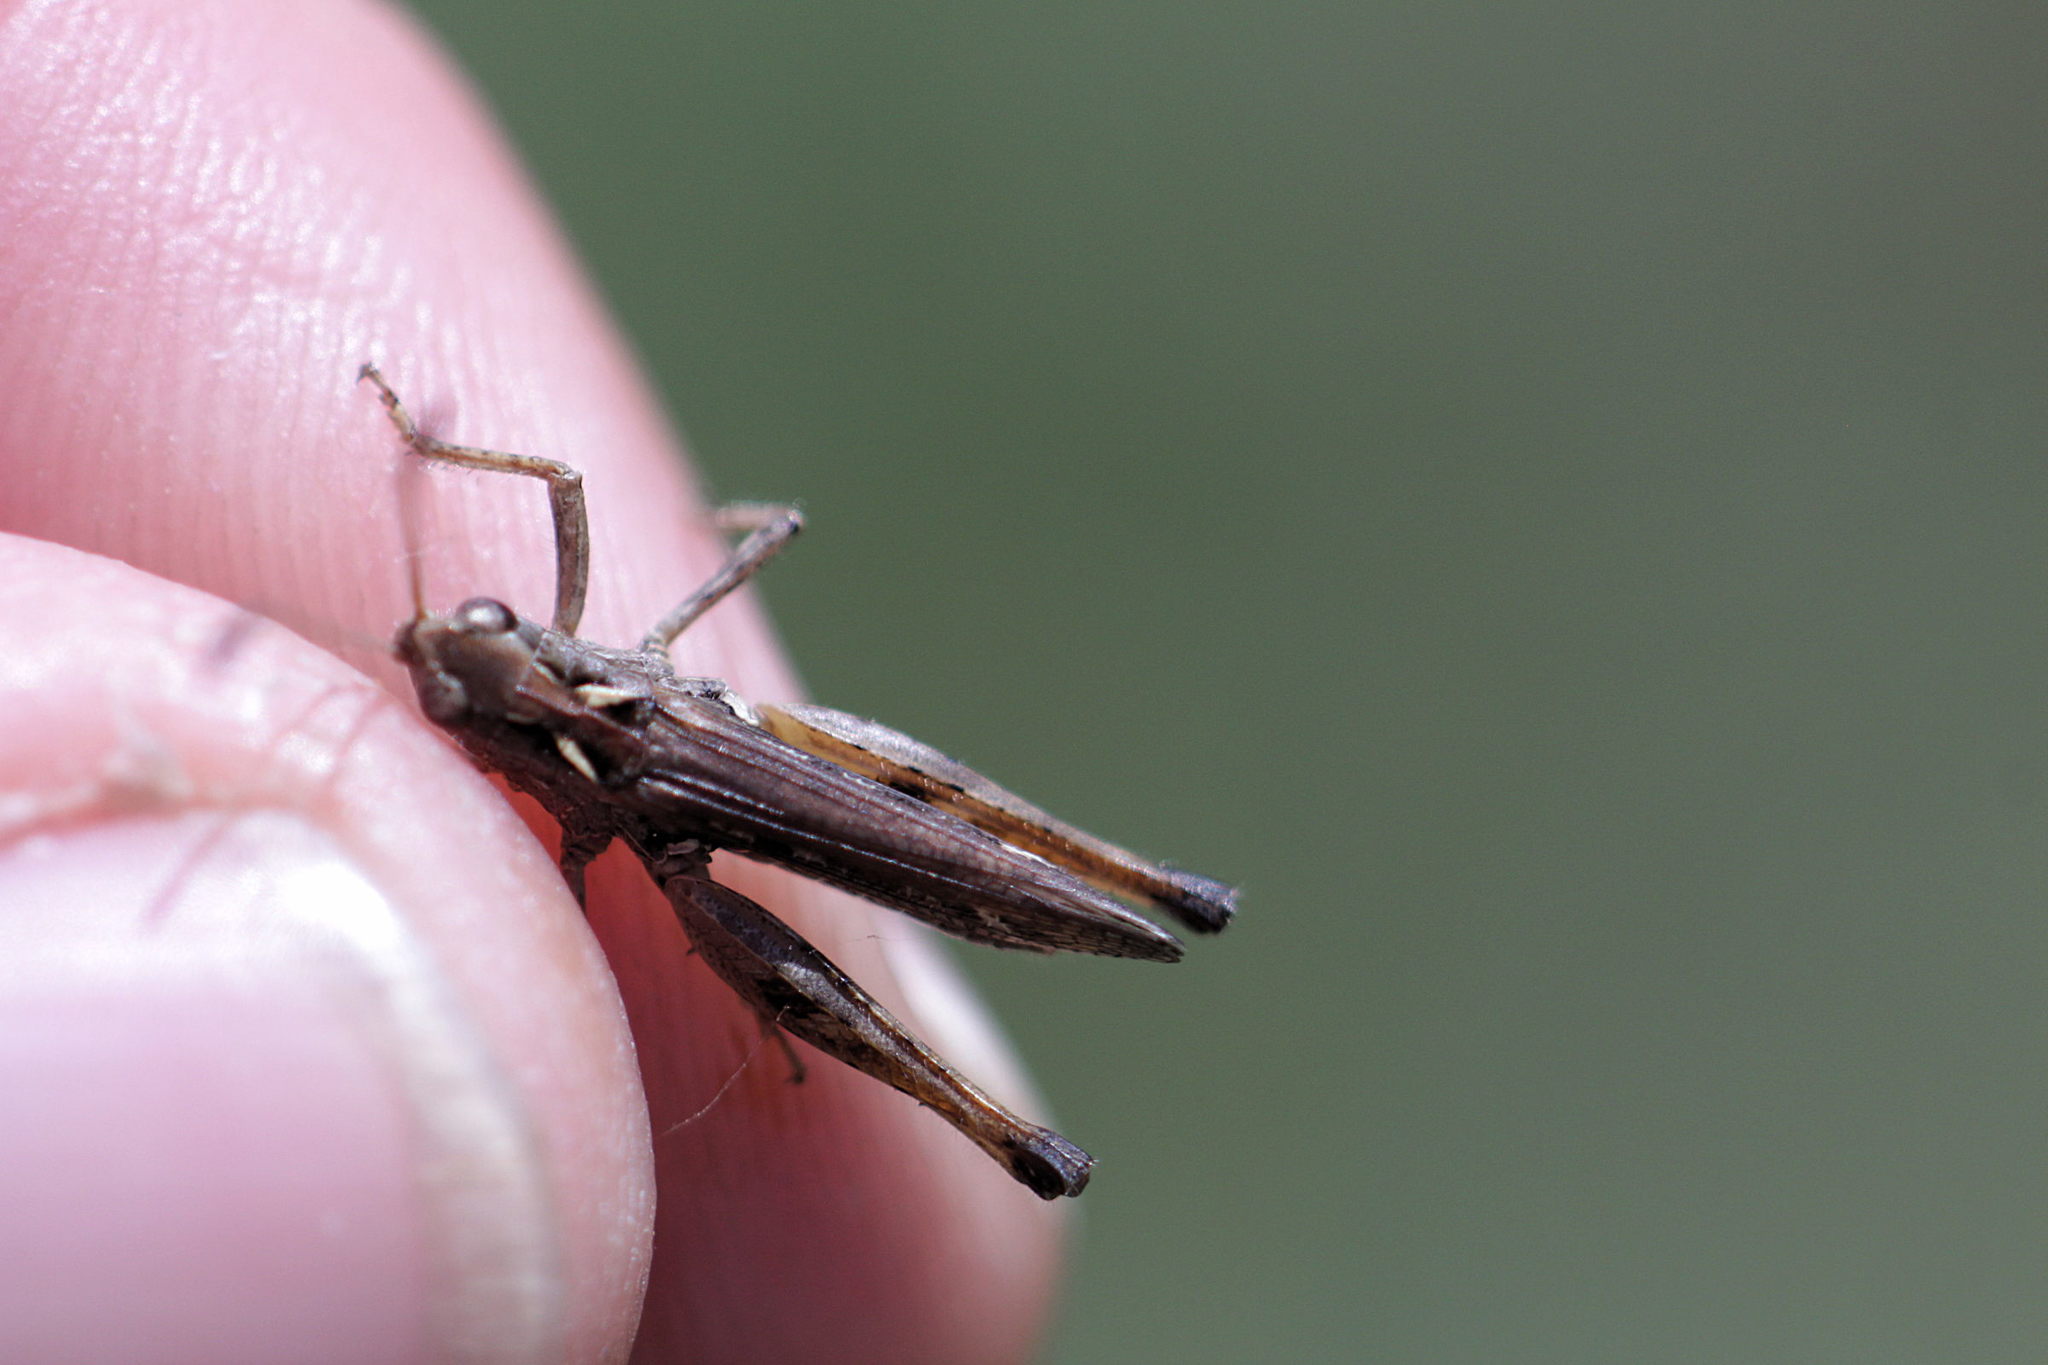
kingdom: Animalia
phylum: Arthropoda
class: Insecta
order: Orthoptera
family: Acrididae
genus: Myrmeleotettix
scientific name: Myrmeleotettix maculatus
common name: Mottled grasshopper
